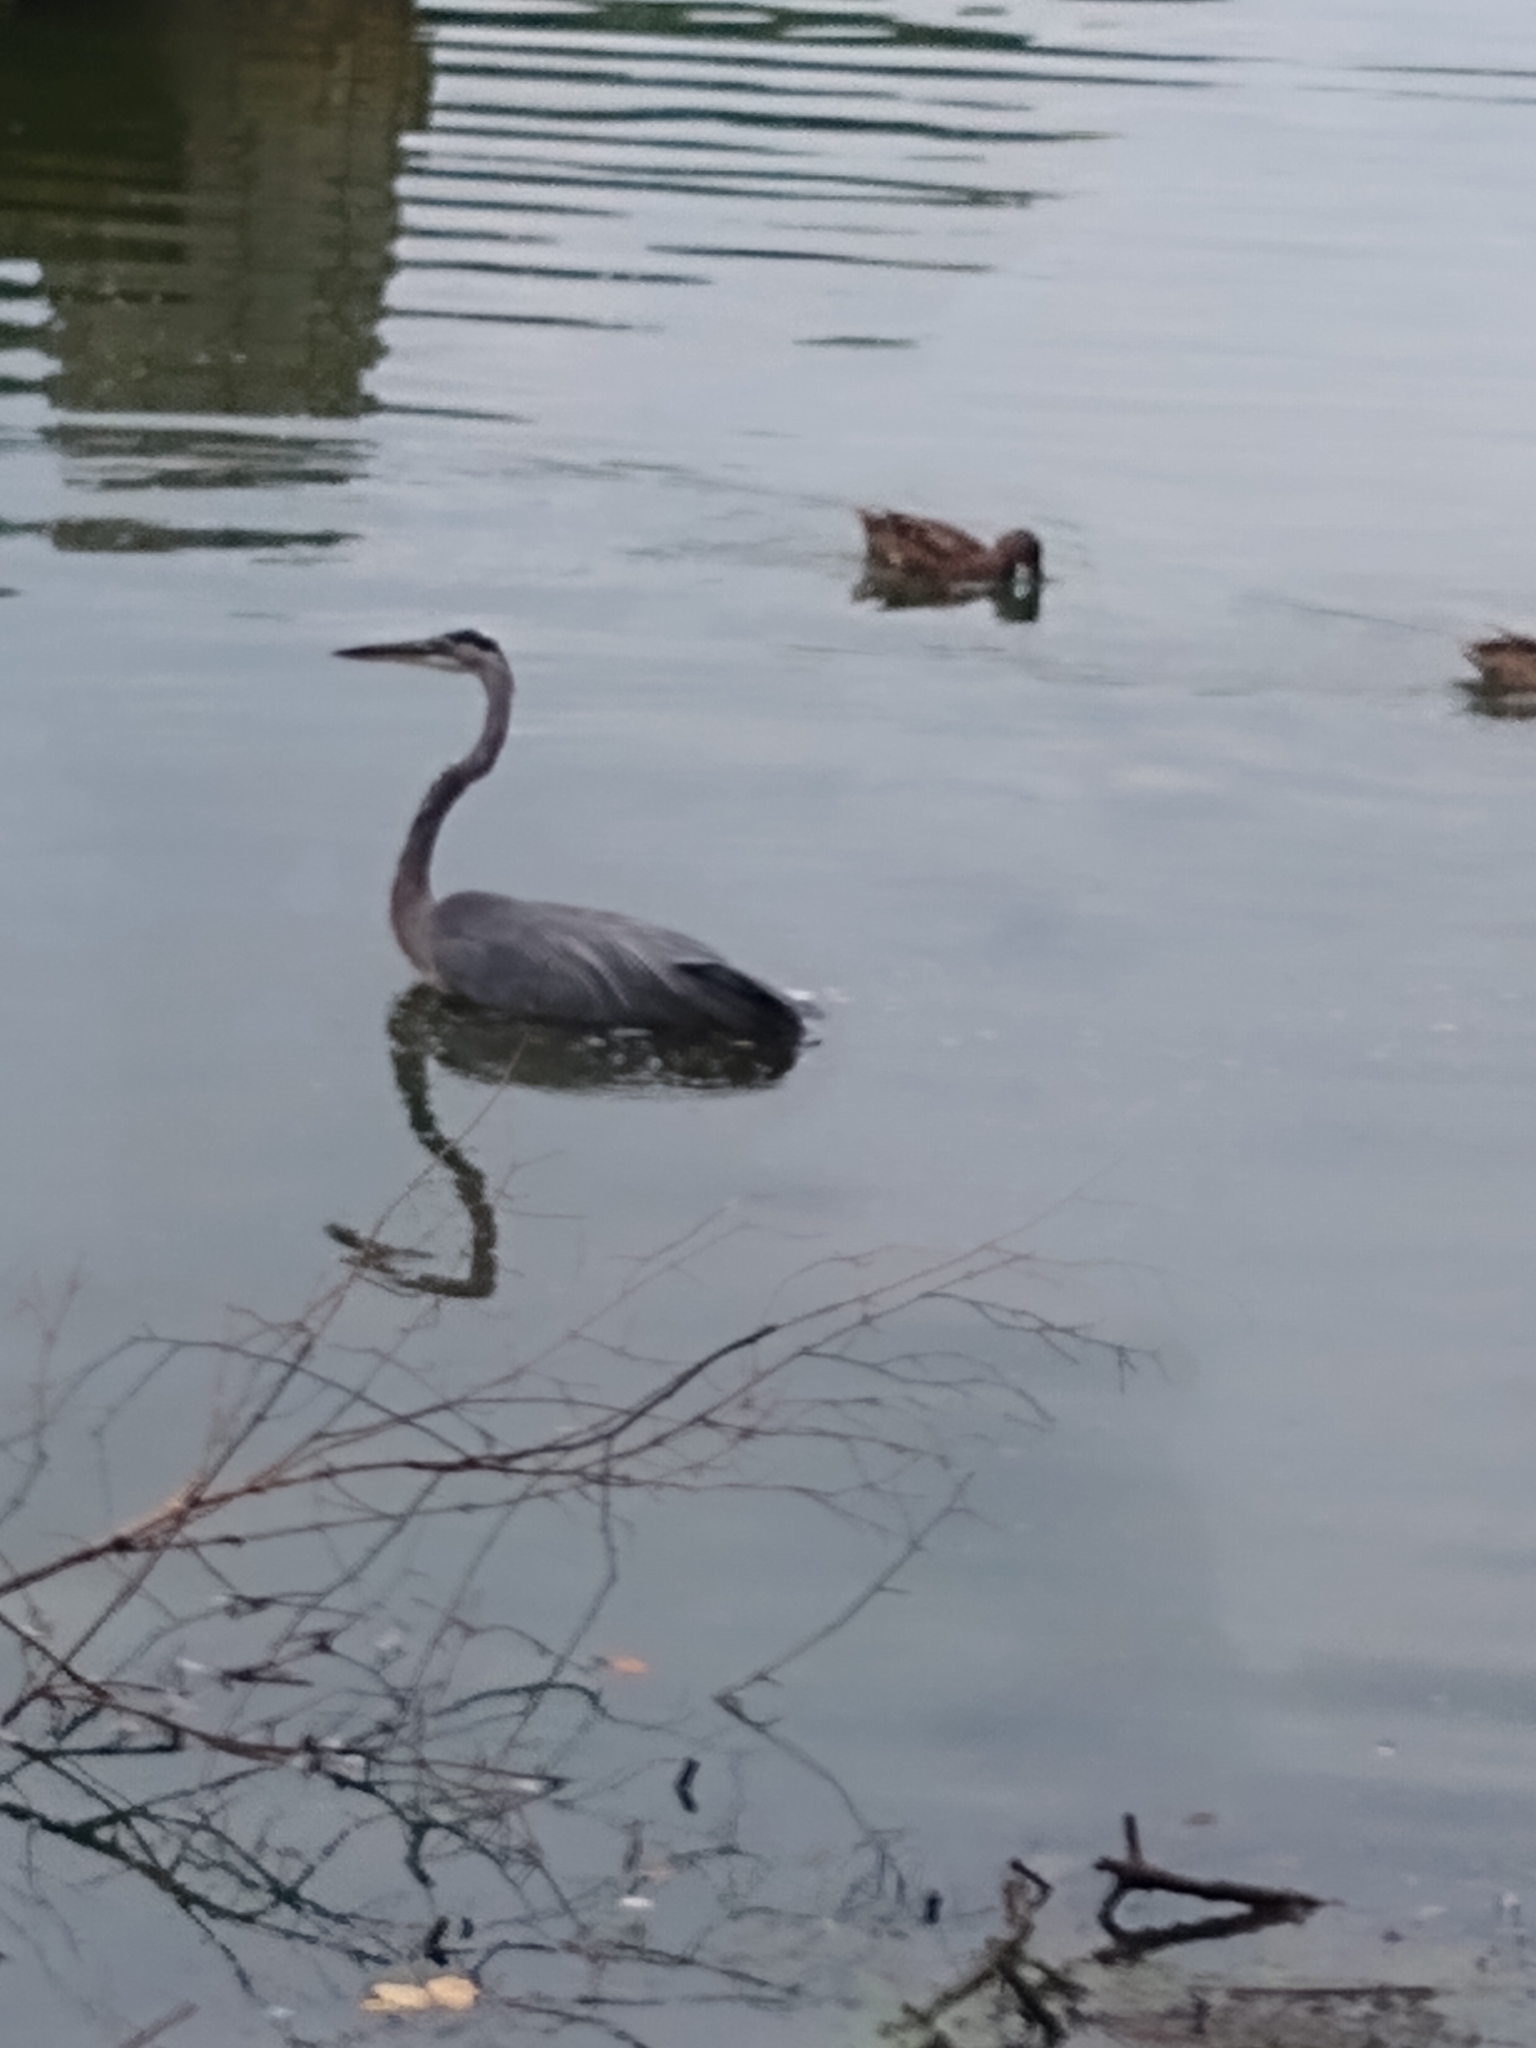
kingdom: Animalia
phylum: Chordata
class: Aves
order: Pelecaniformes
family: Ardeidae
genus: Ardea
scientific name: Ardea herodias
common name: Great blue heron
